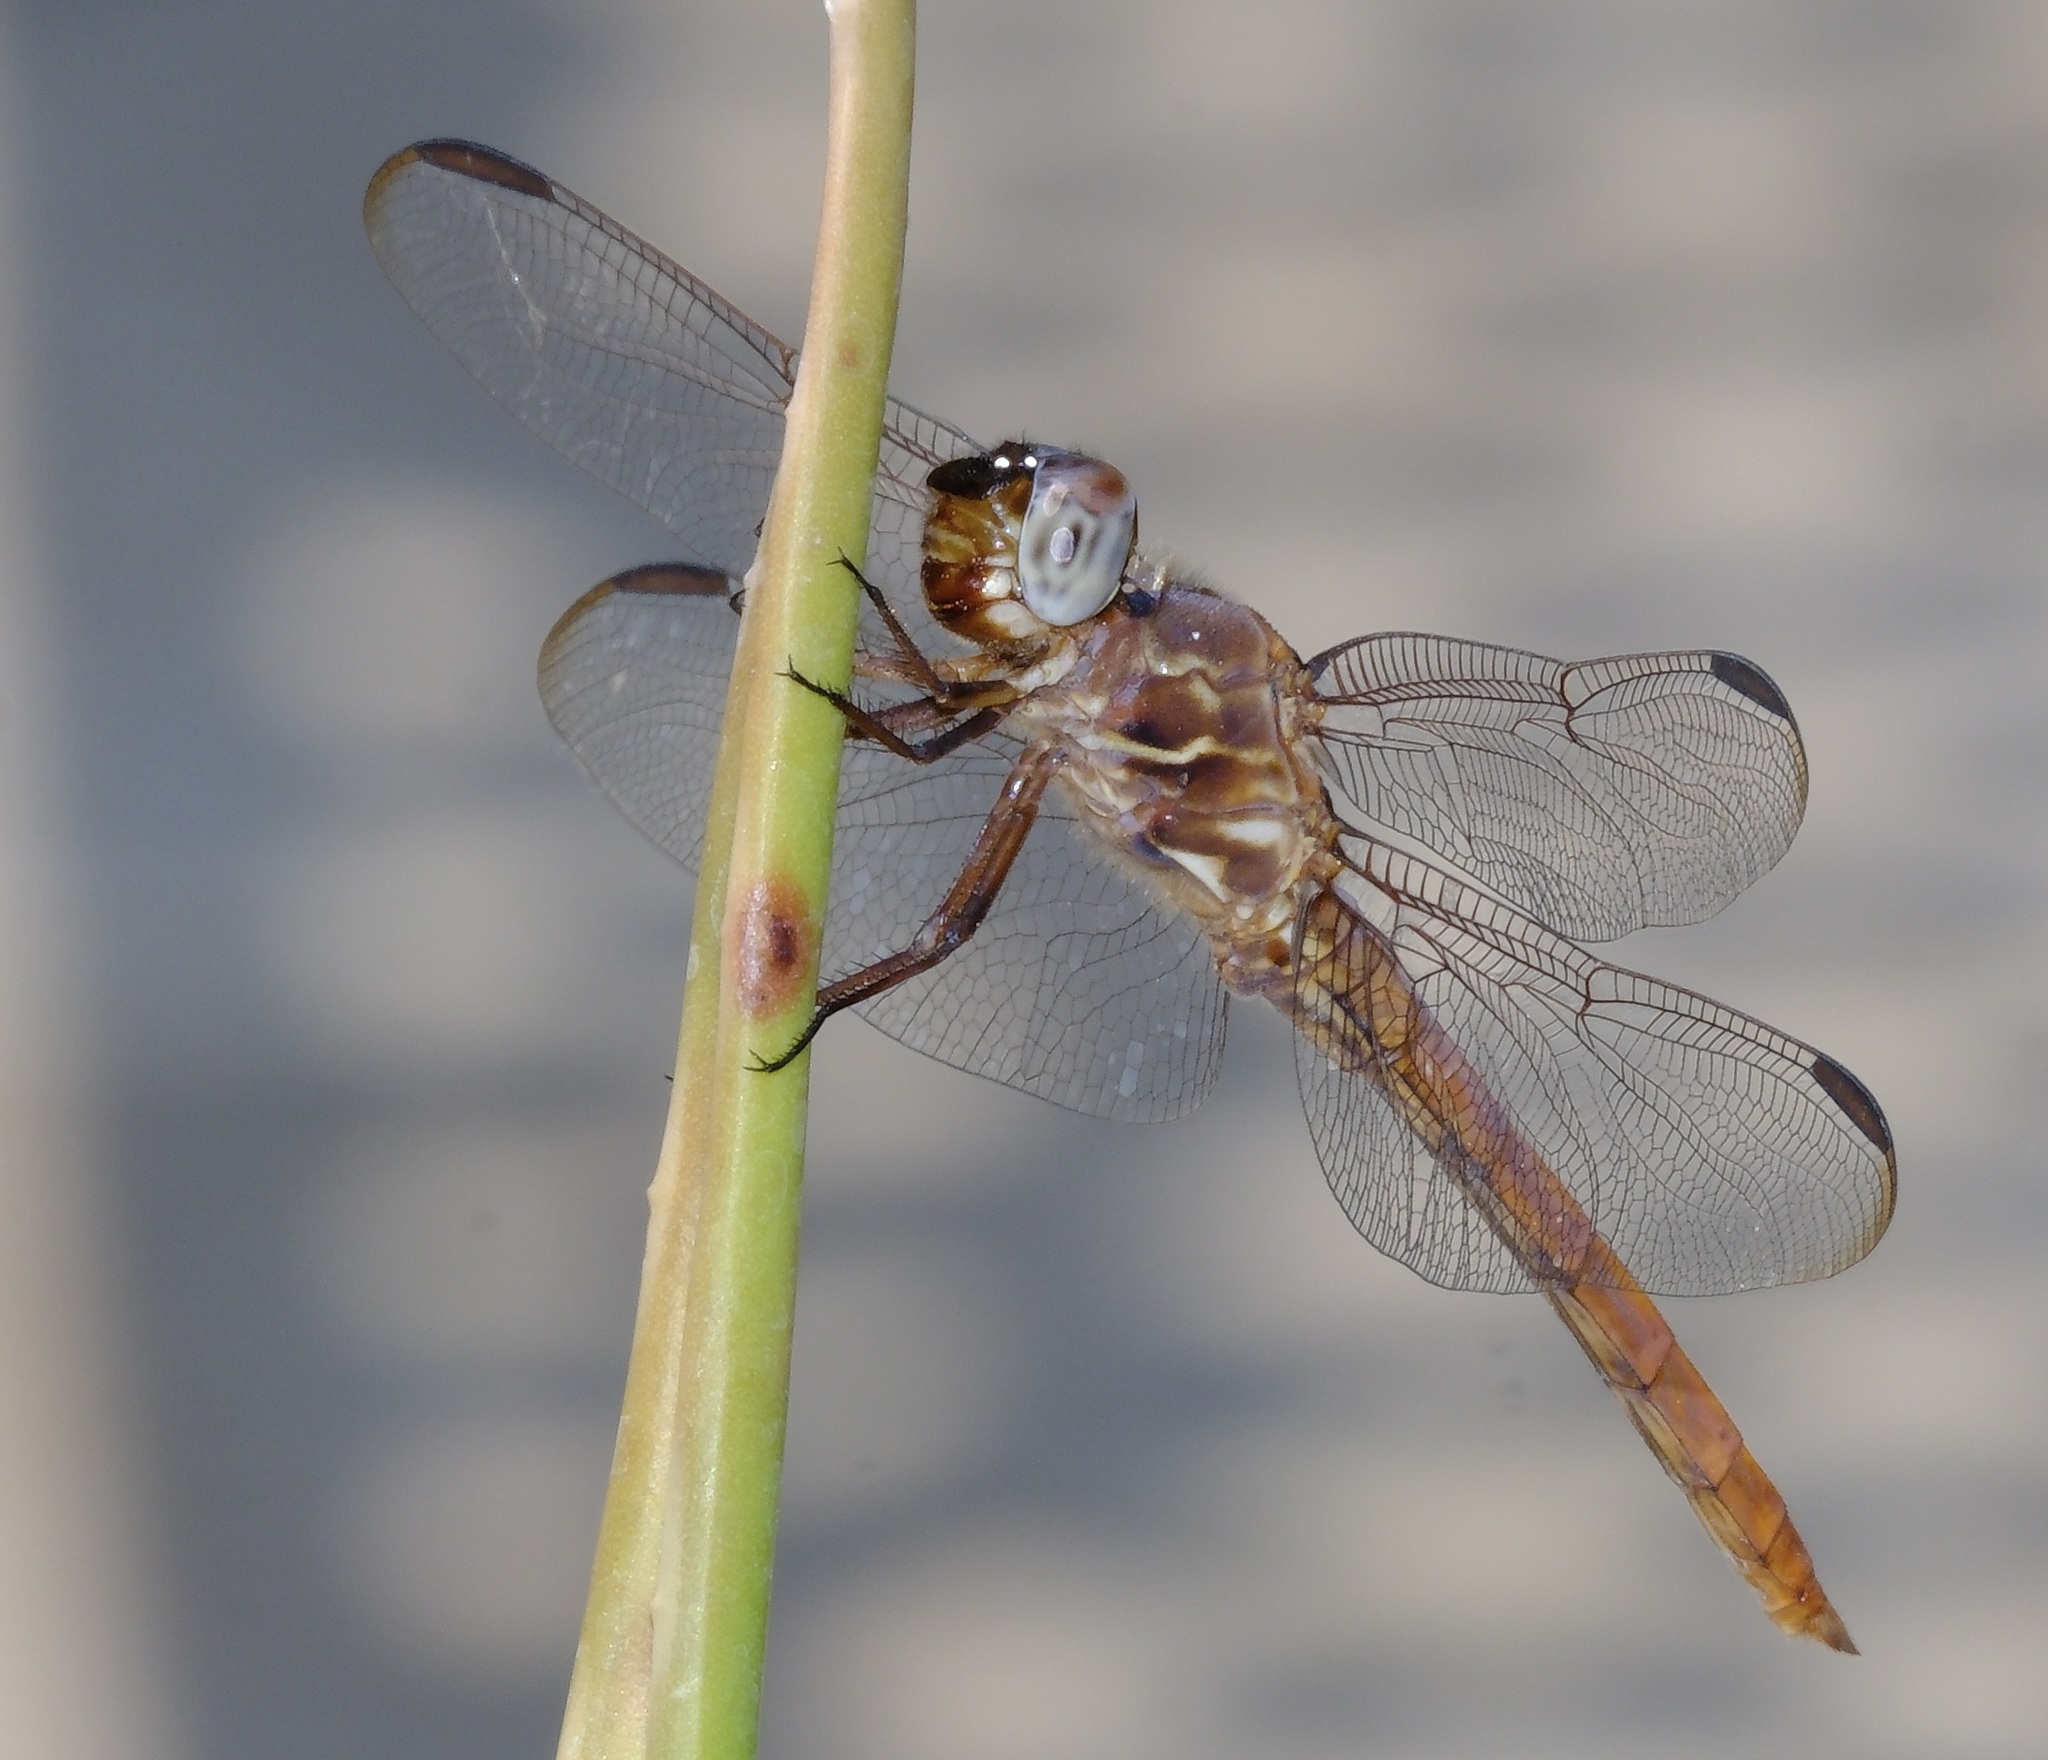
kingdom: Animalia
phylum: Arthropoda
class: Insecta
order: Odonata
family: Libellulidae
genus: Orthemis
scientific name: Orthemis ferruginea
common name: Roseate skimmer
